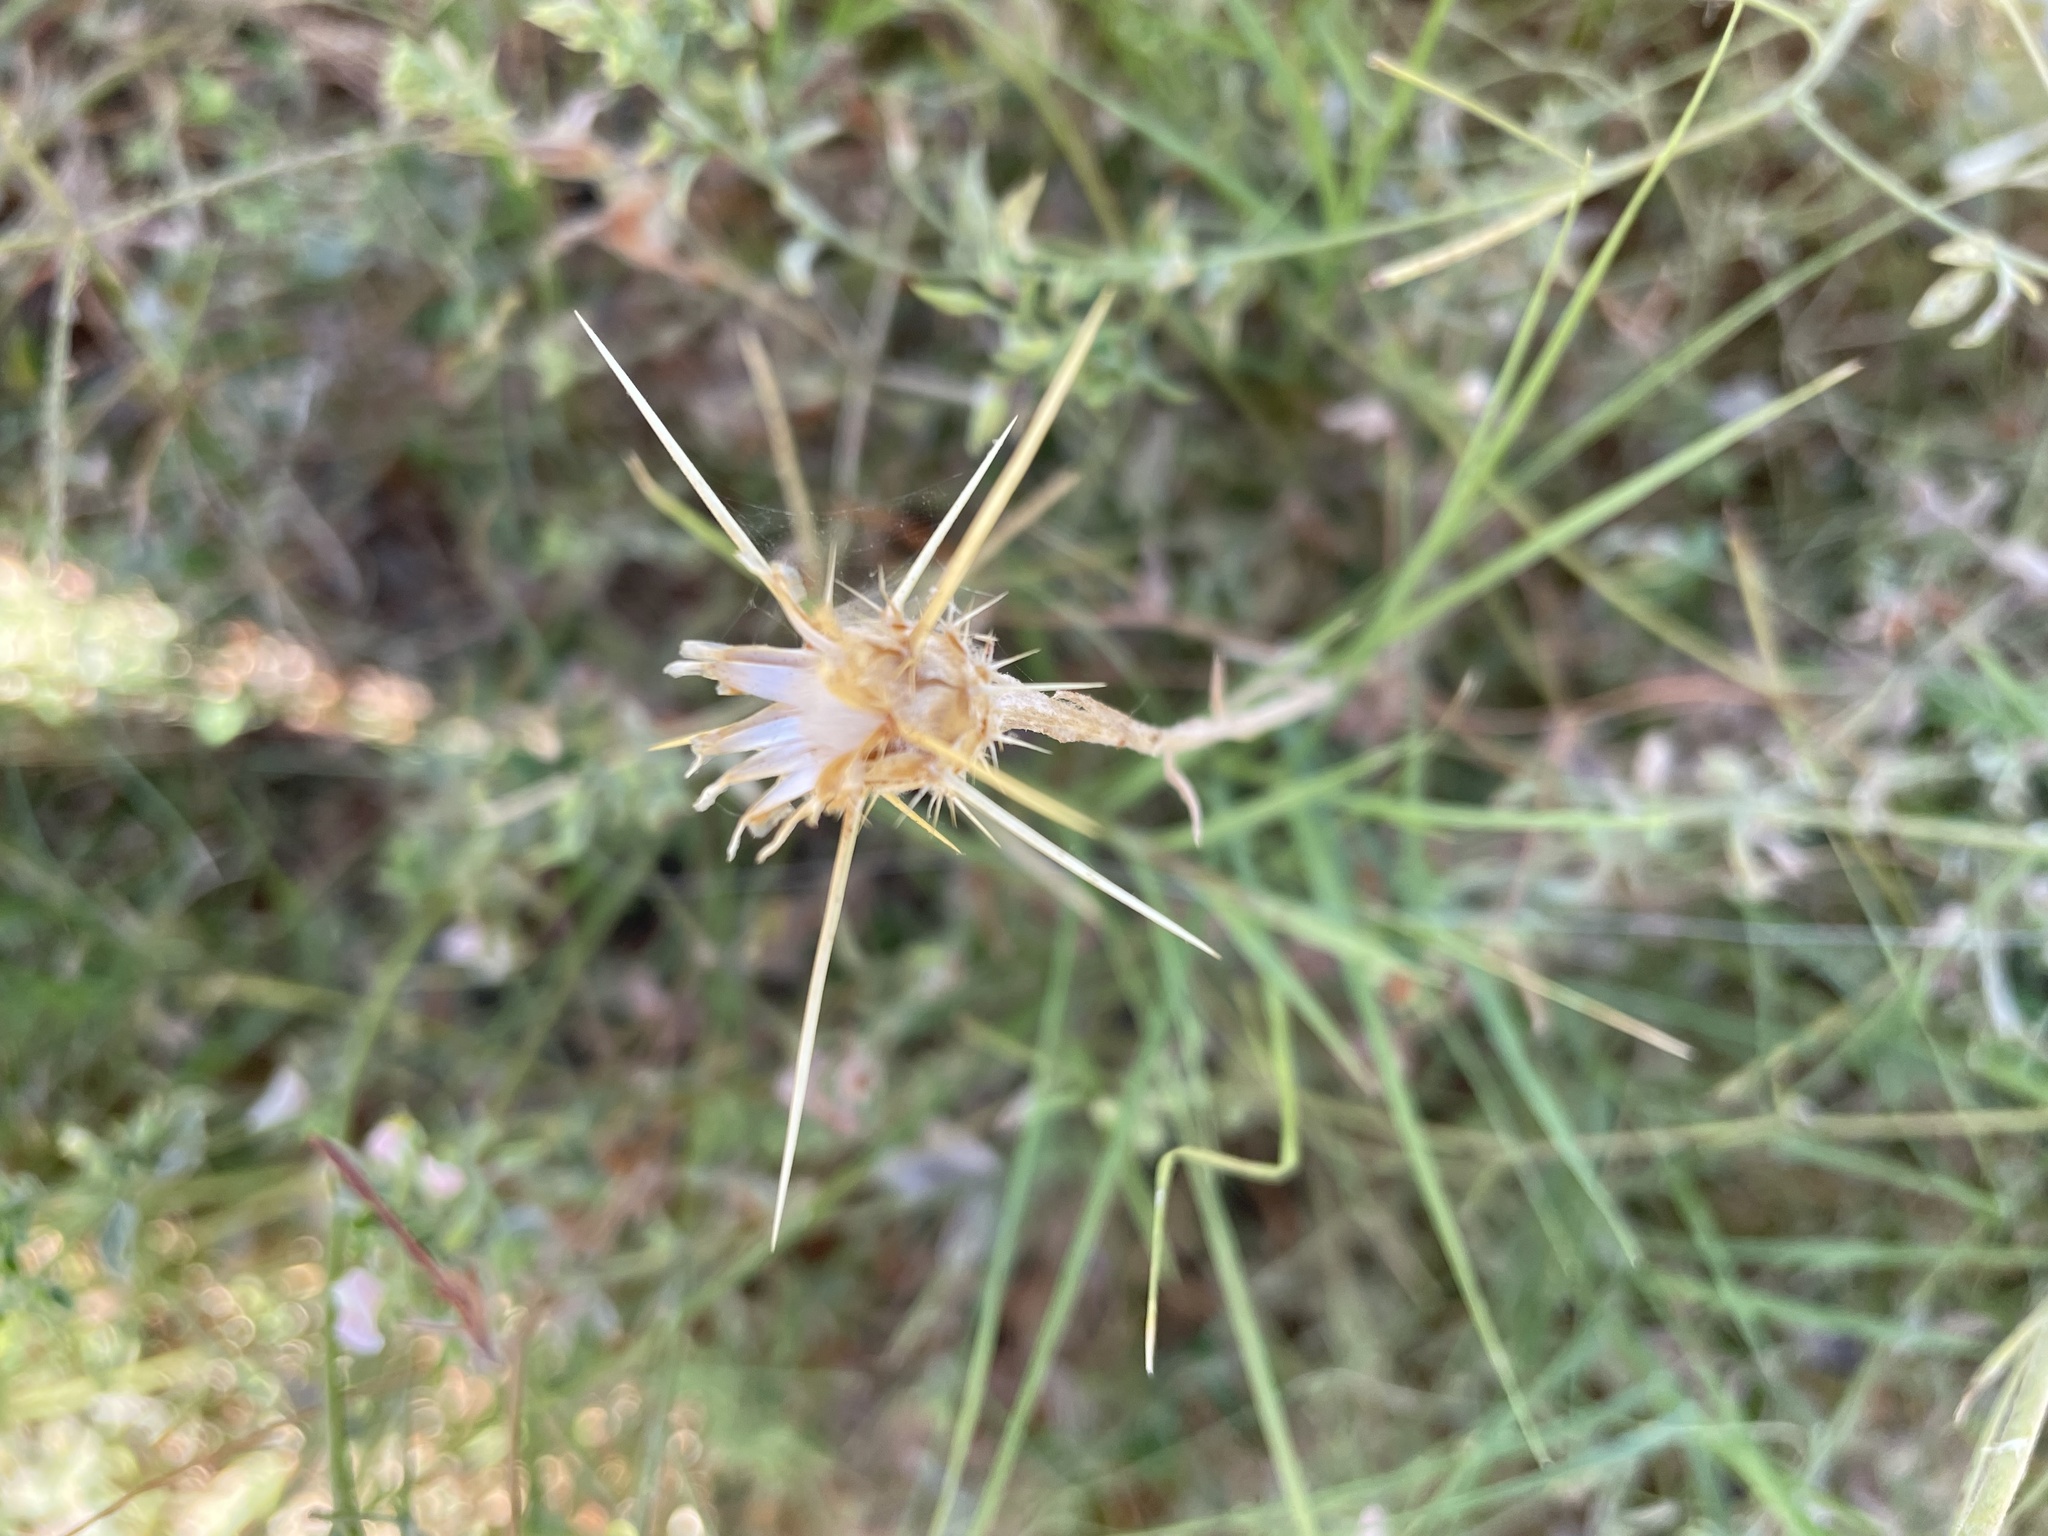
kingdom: Plantae
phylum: Tracheophyta
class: Magnoliopsida
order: Asterales
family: Asteraceae
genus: Centaurea
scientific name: Centaurea solstitialis
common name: Yellow star-thistle
